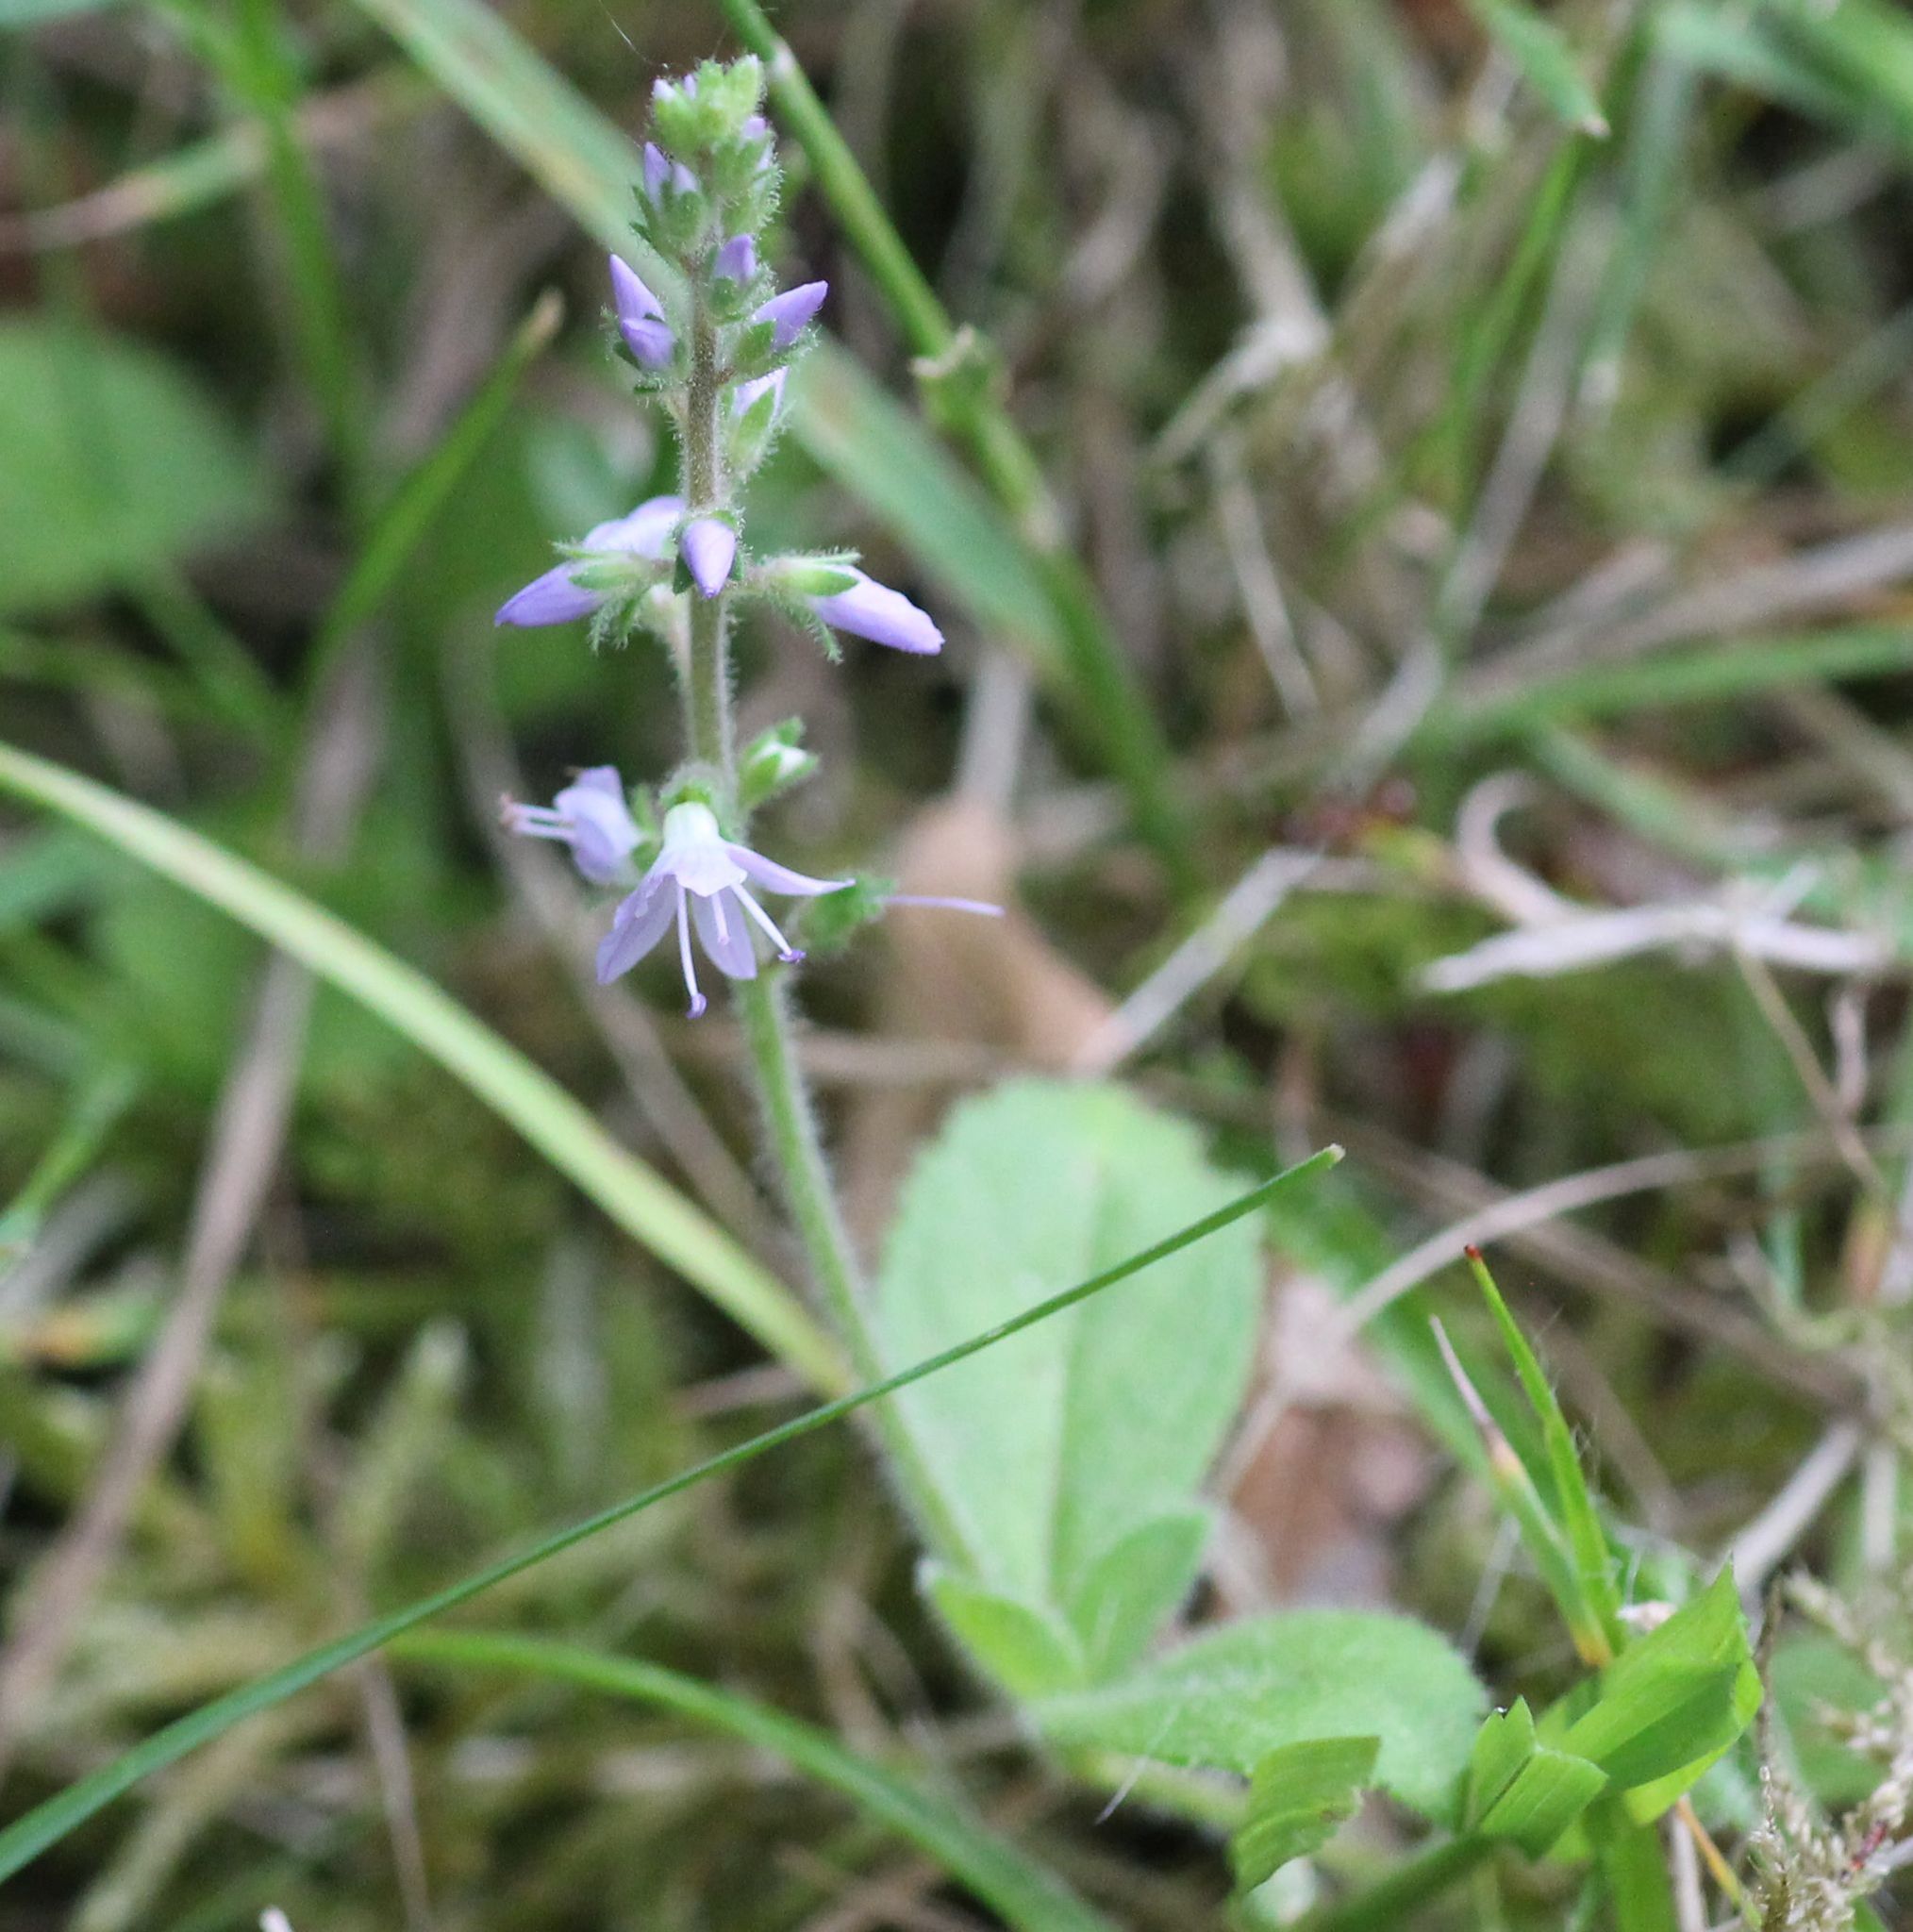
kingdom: Plantae
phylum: Tracheophyta
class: Magnoliopsida
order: Lamiales
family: Plantaginaceae
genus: Veronica
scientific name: Veronica officinalis
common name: Common speedwell
